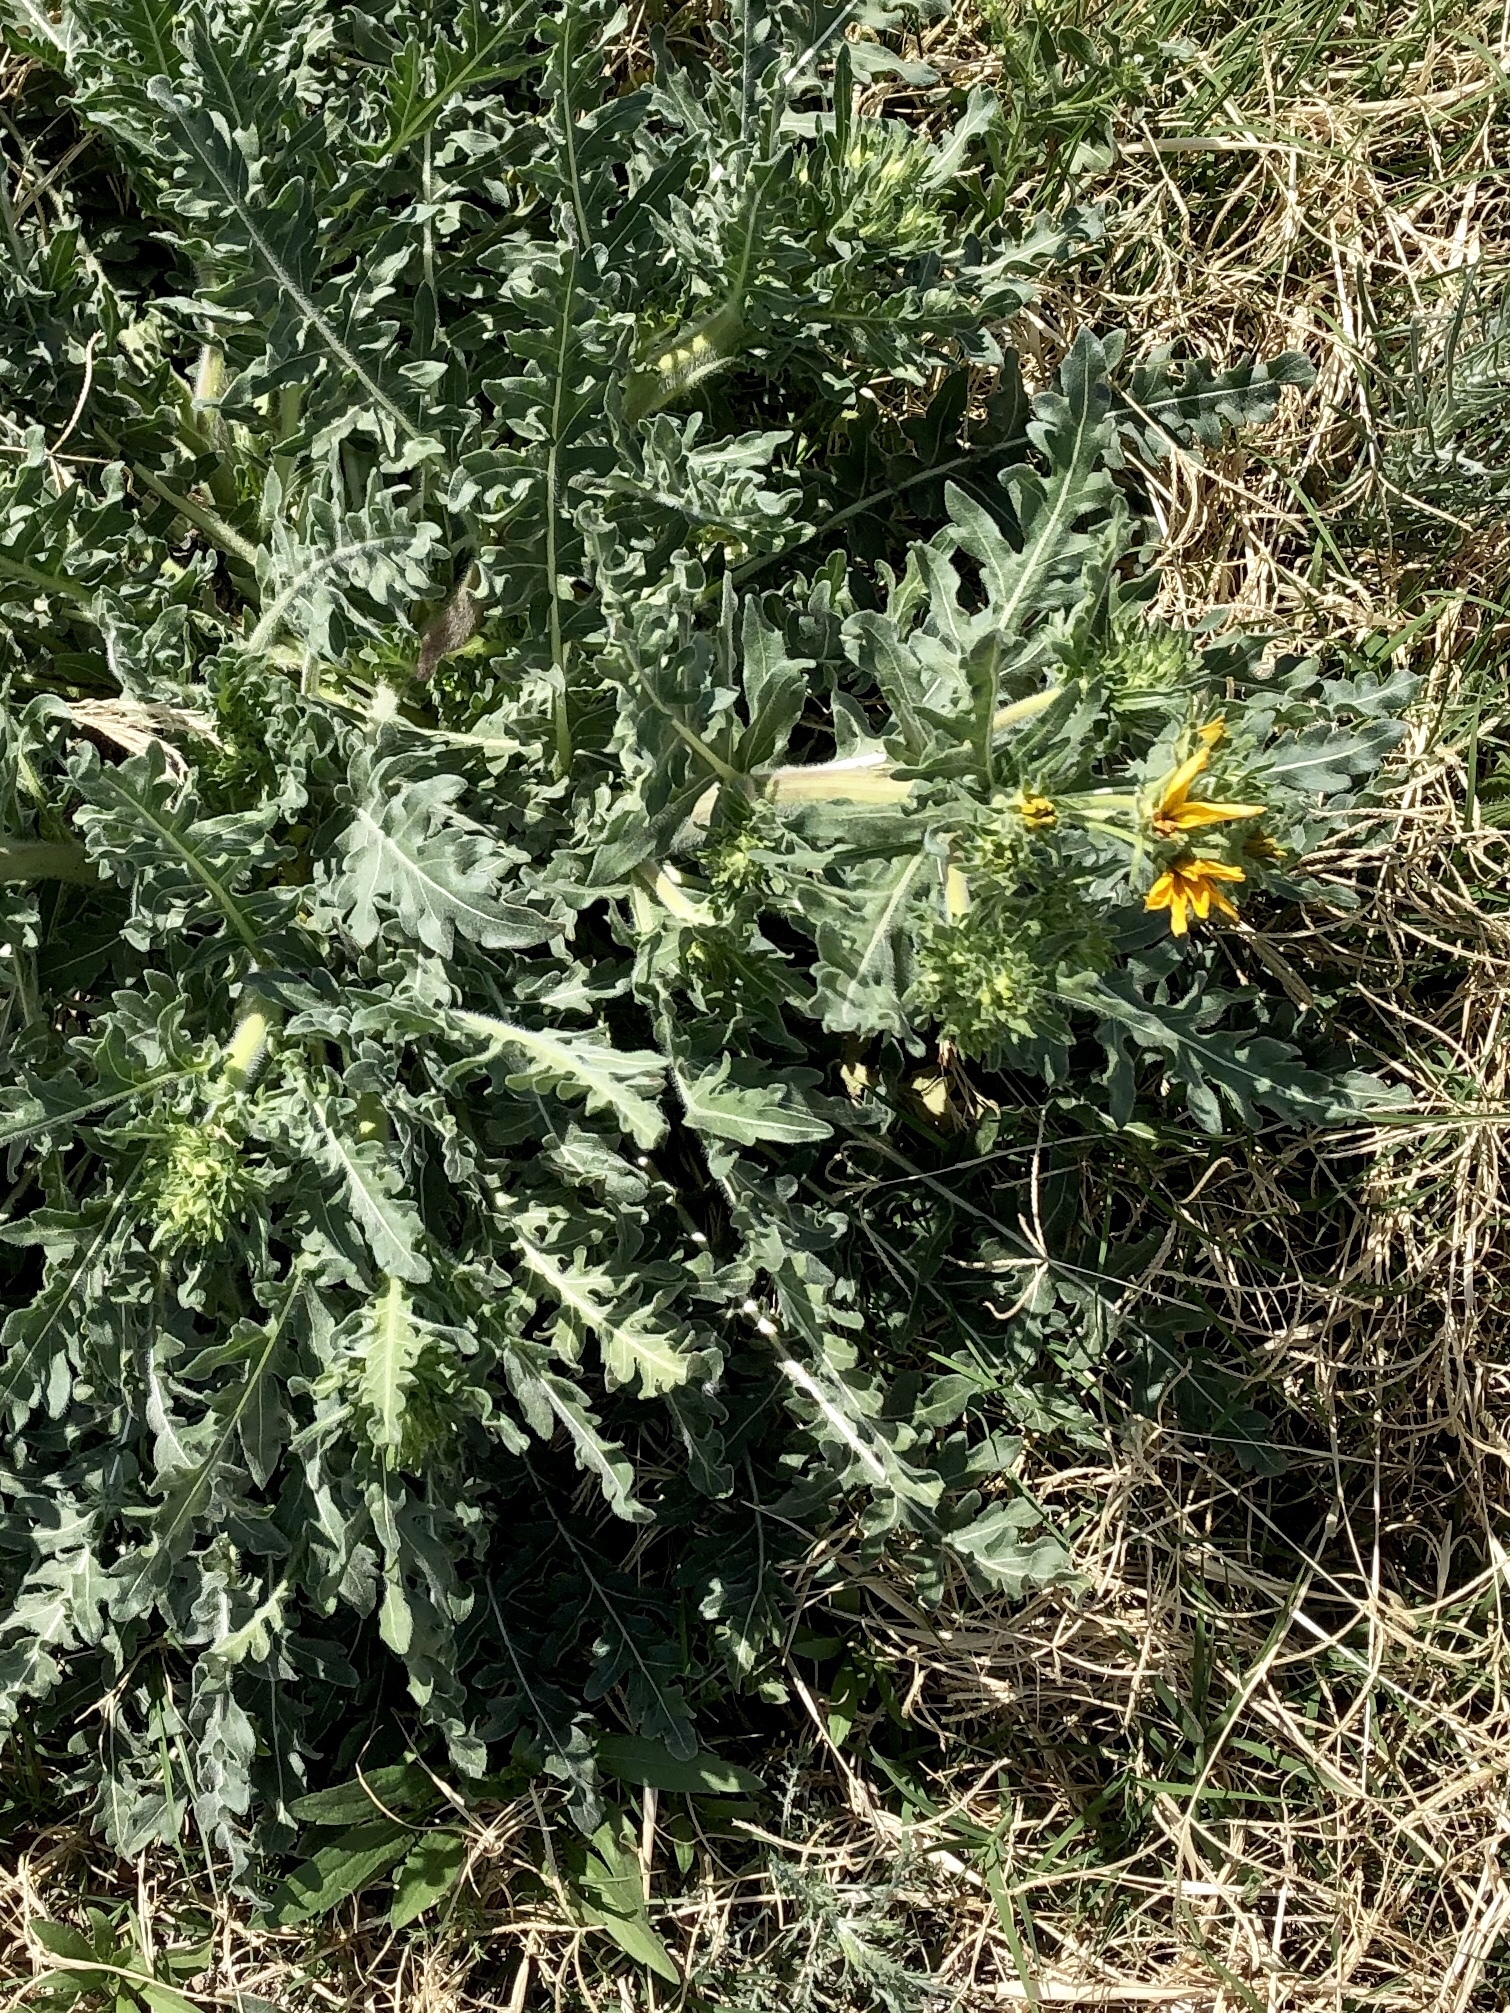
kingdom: Plantae
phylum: Tracheophyta
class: Magnoliopsida
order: Asterales
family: Asteraceae
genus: Engelmannia
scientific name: Engelmannia peristenia
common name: Engelmann's daisy
